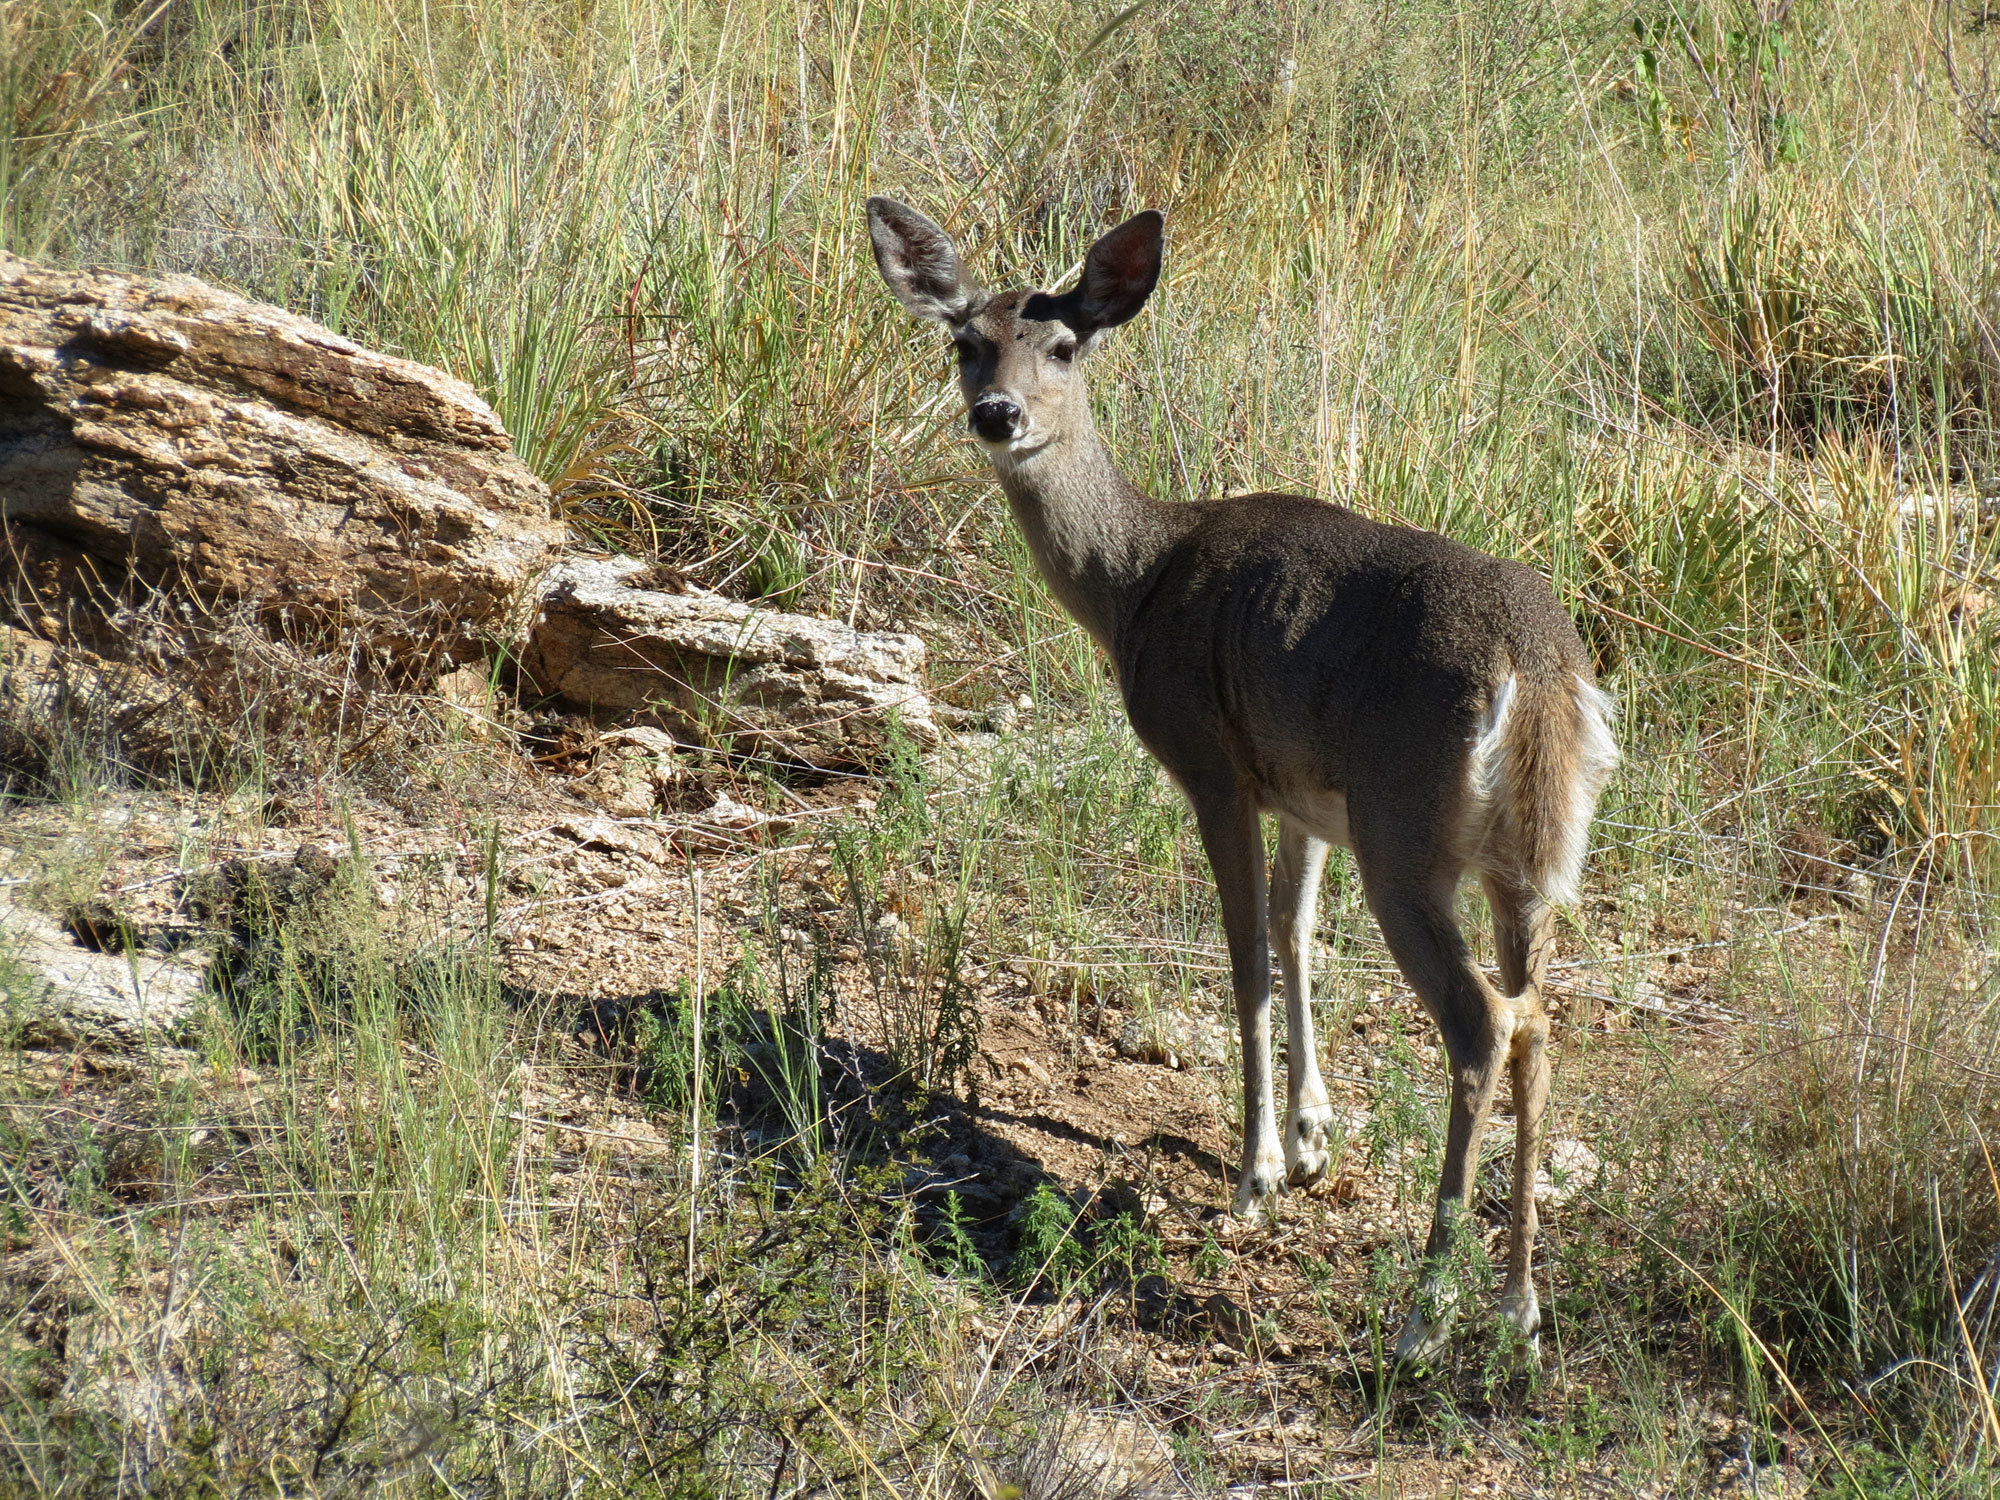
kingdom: Animalia
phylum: Chordata
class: Mammalia
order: Artiodactyla
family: Cervidae
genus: Odocoileus
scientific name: Odocoileus virginianus
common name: White-tailed deer
